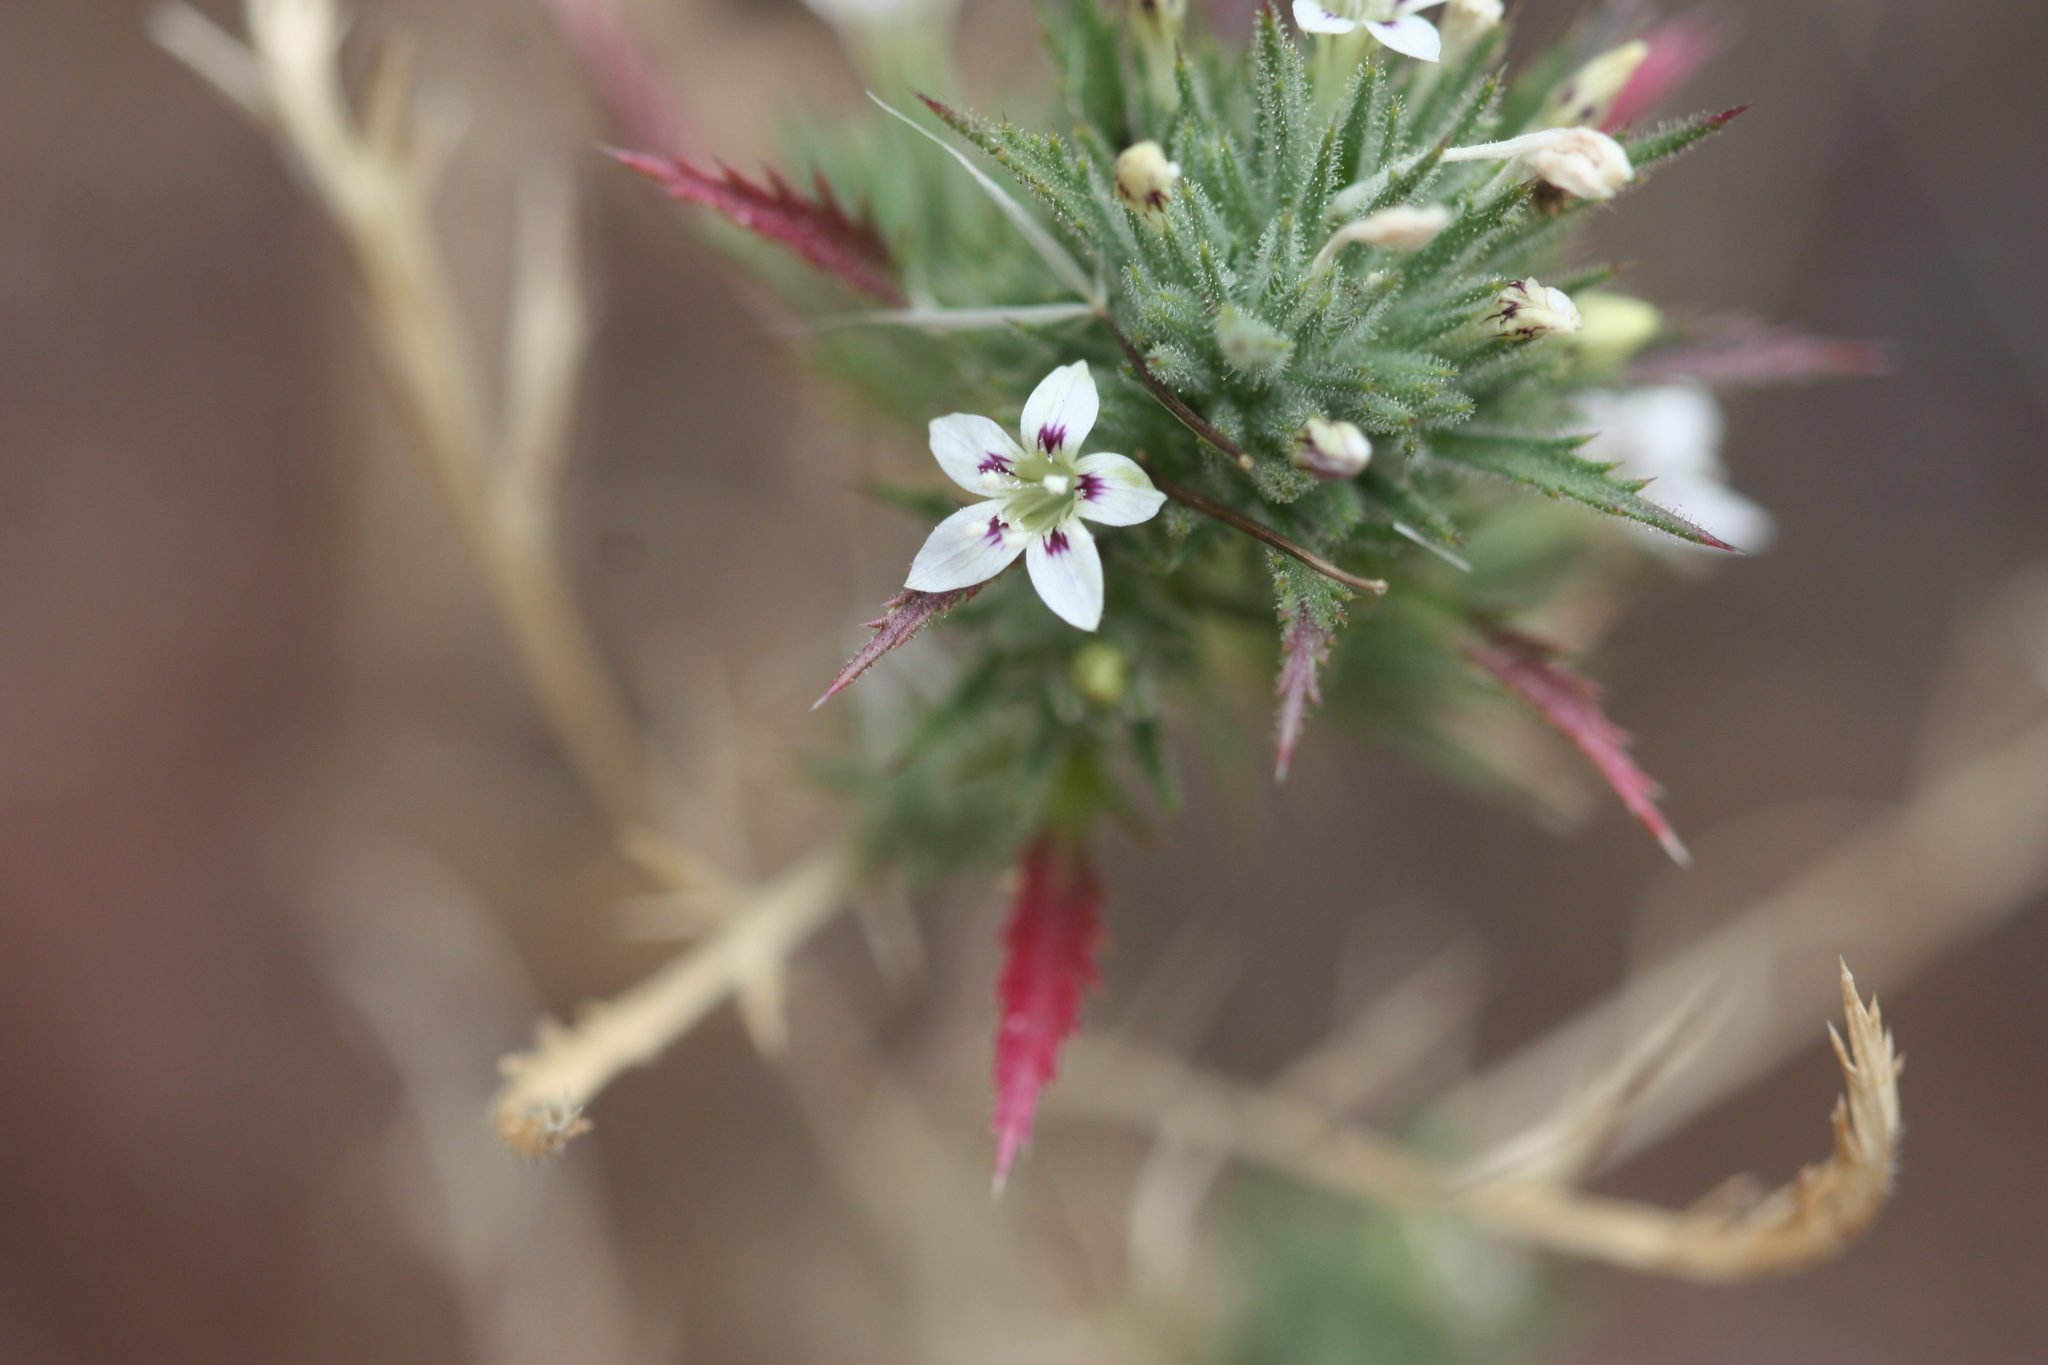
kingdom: Plantae
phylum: Tracheophyta
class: Magnoliopsida
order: Ericales
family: Polemoniaceae
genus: Navarretia
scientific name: Navarretia ojaiensis
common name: Ojai valley pincushionplant
